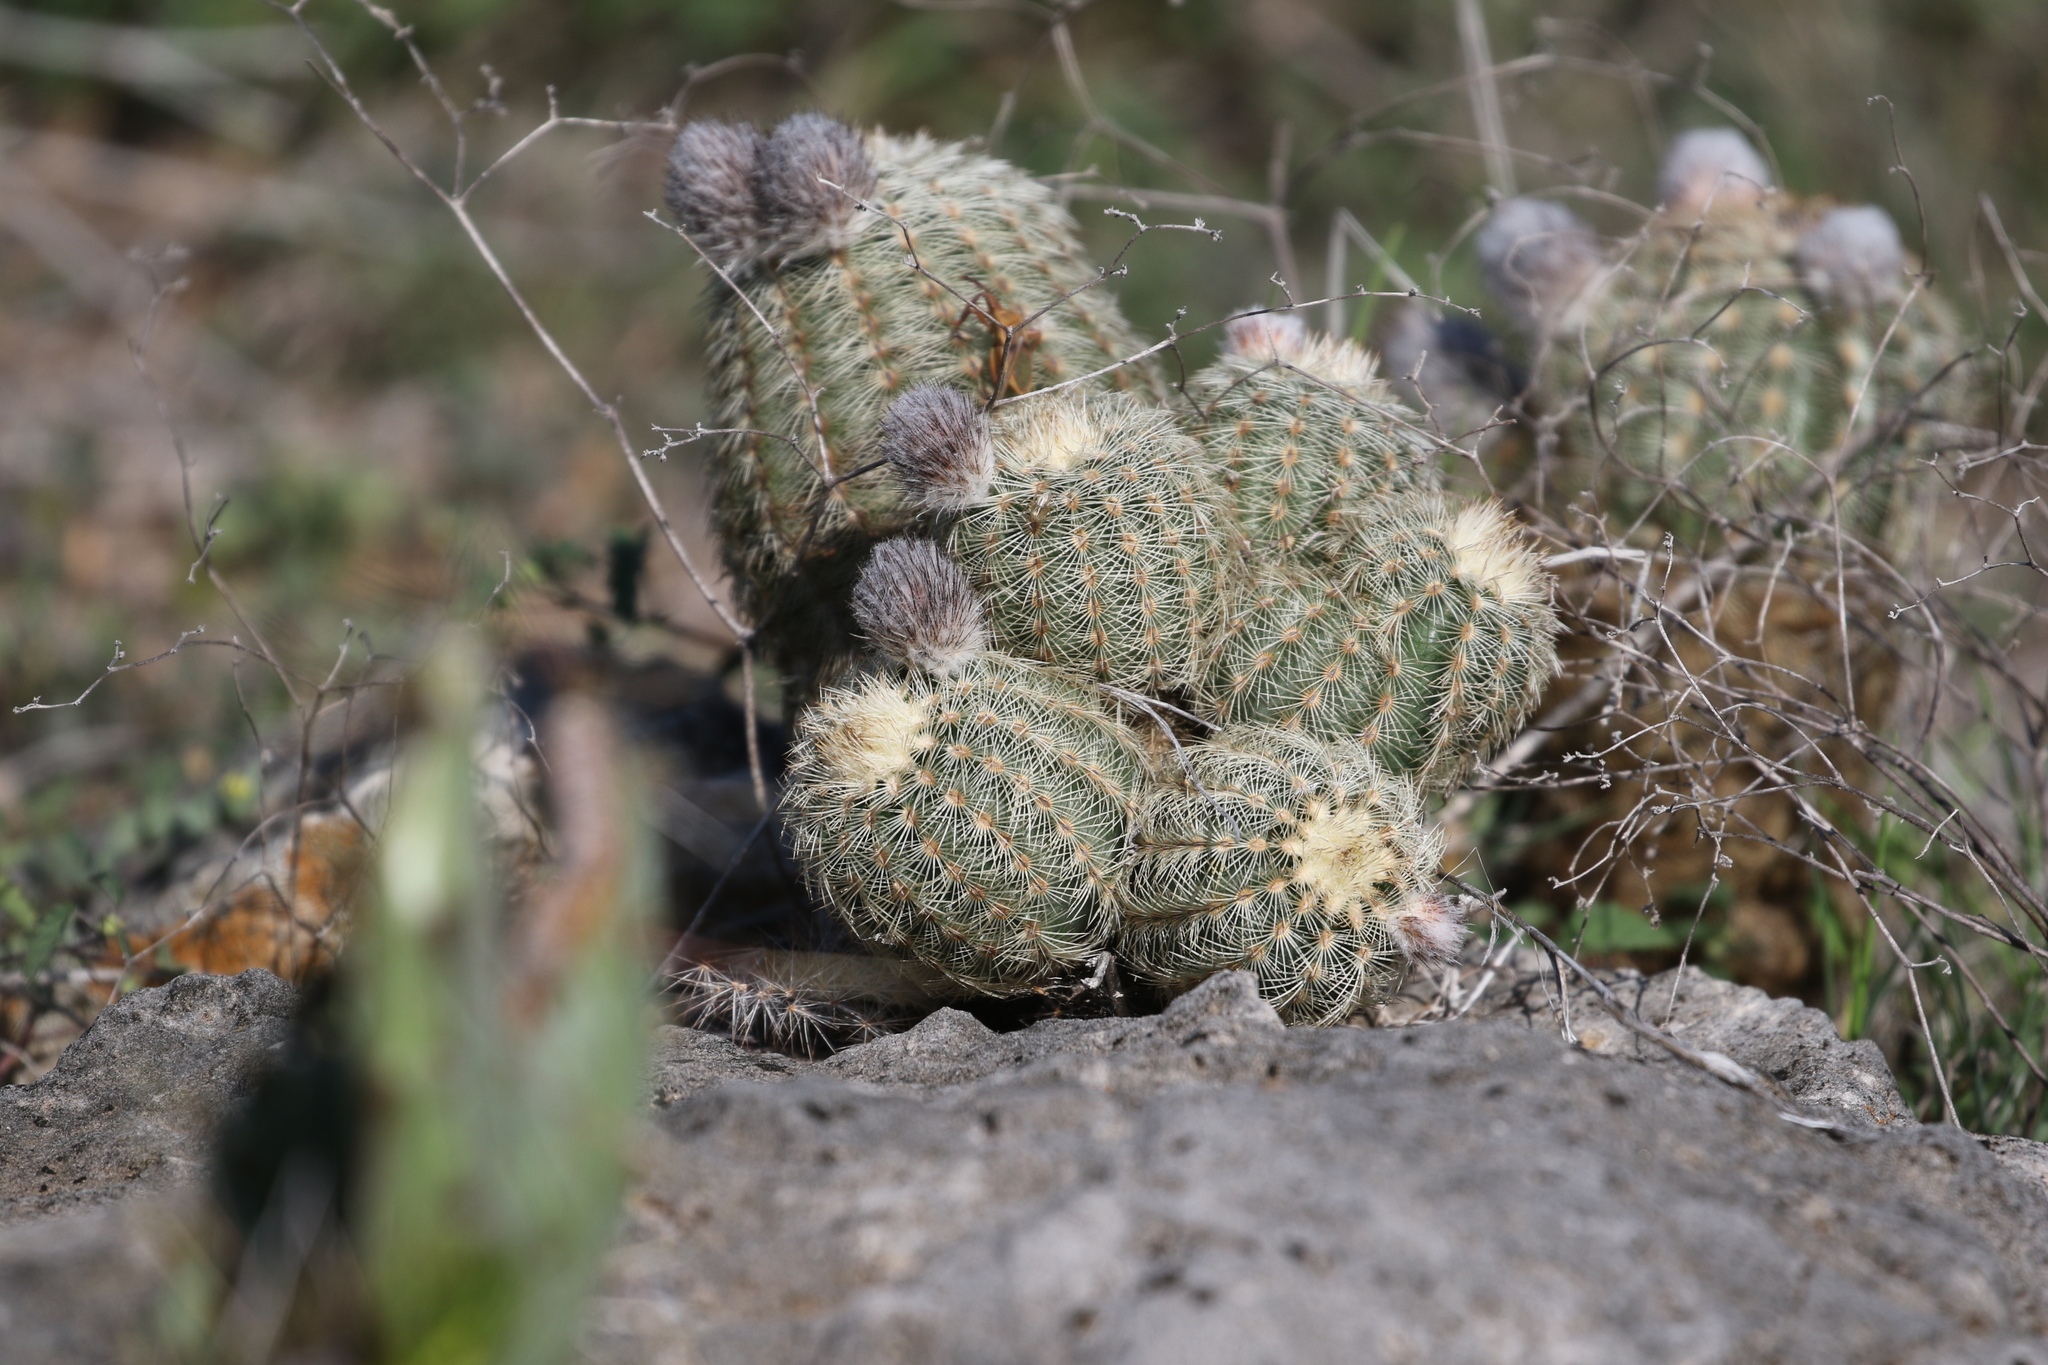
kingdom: Plantae
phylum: Tracheophyta
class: Magnoliopsida
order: Caryophyllales
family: Cactaceae
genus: Echinocereus
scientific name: Echinocereus reichenbachii
